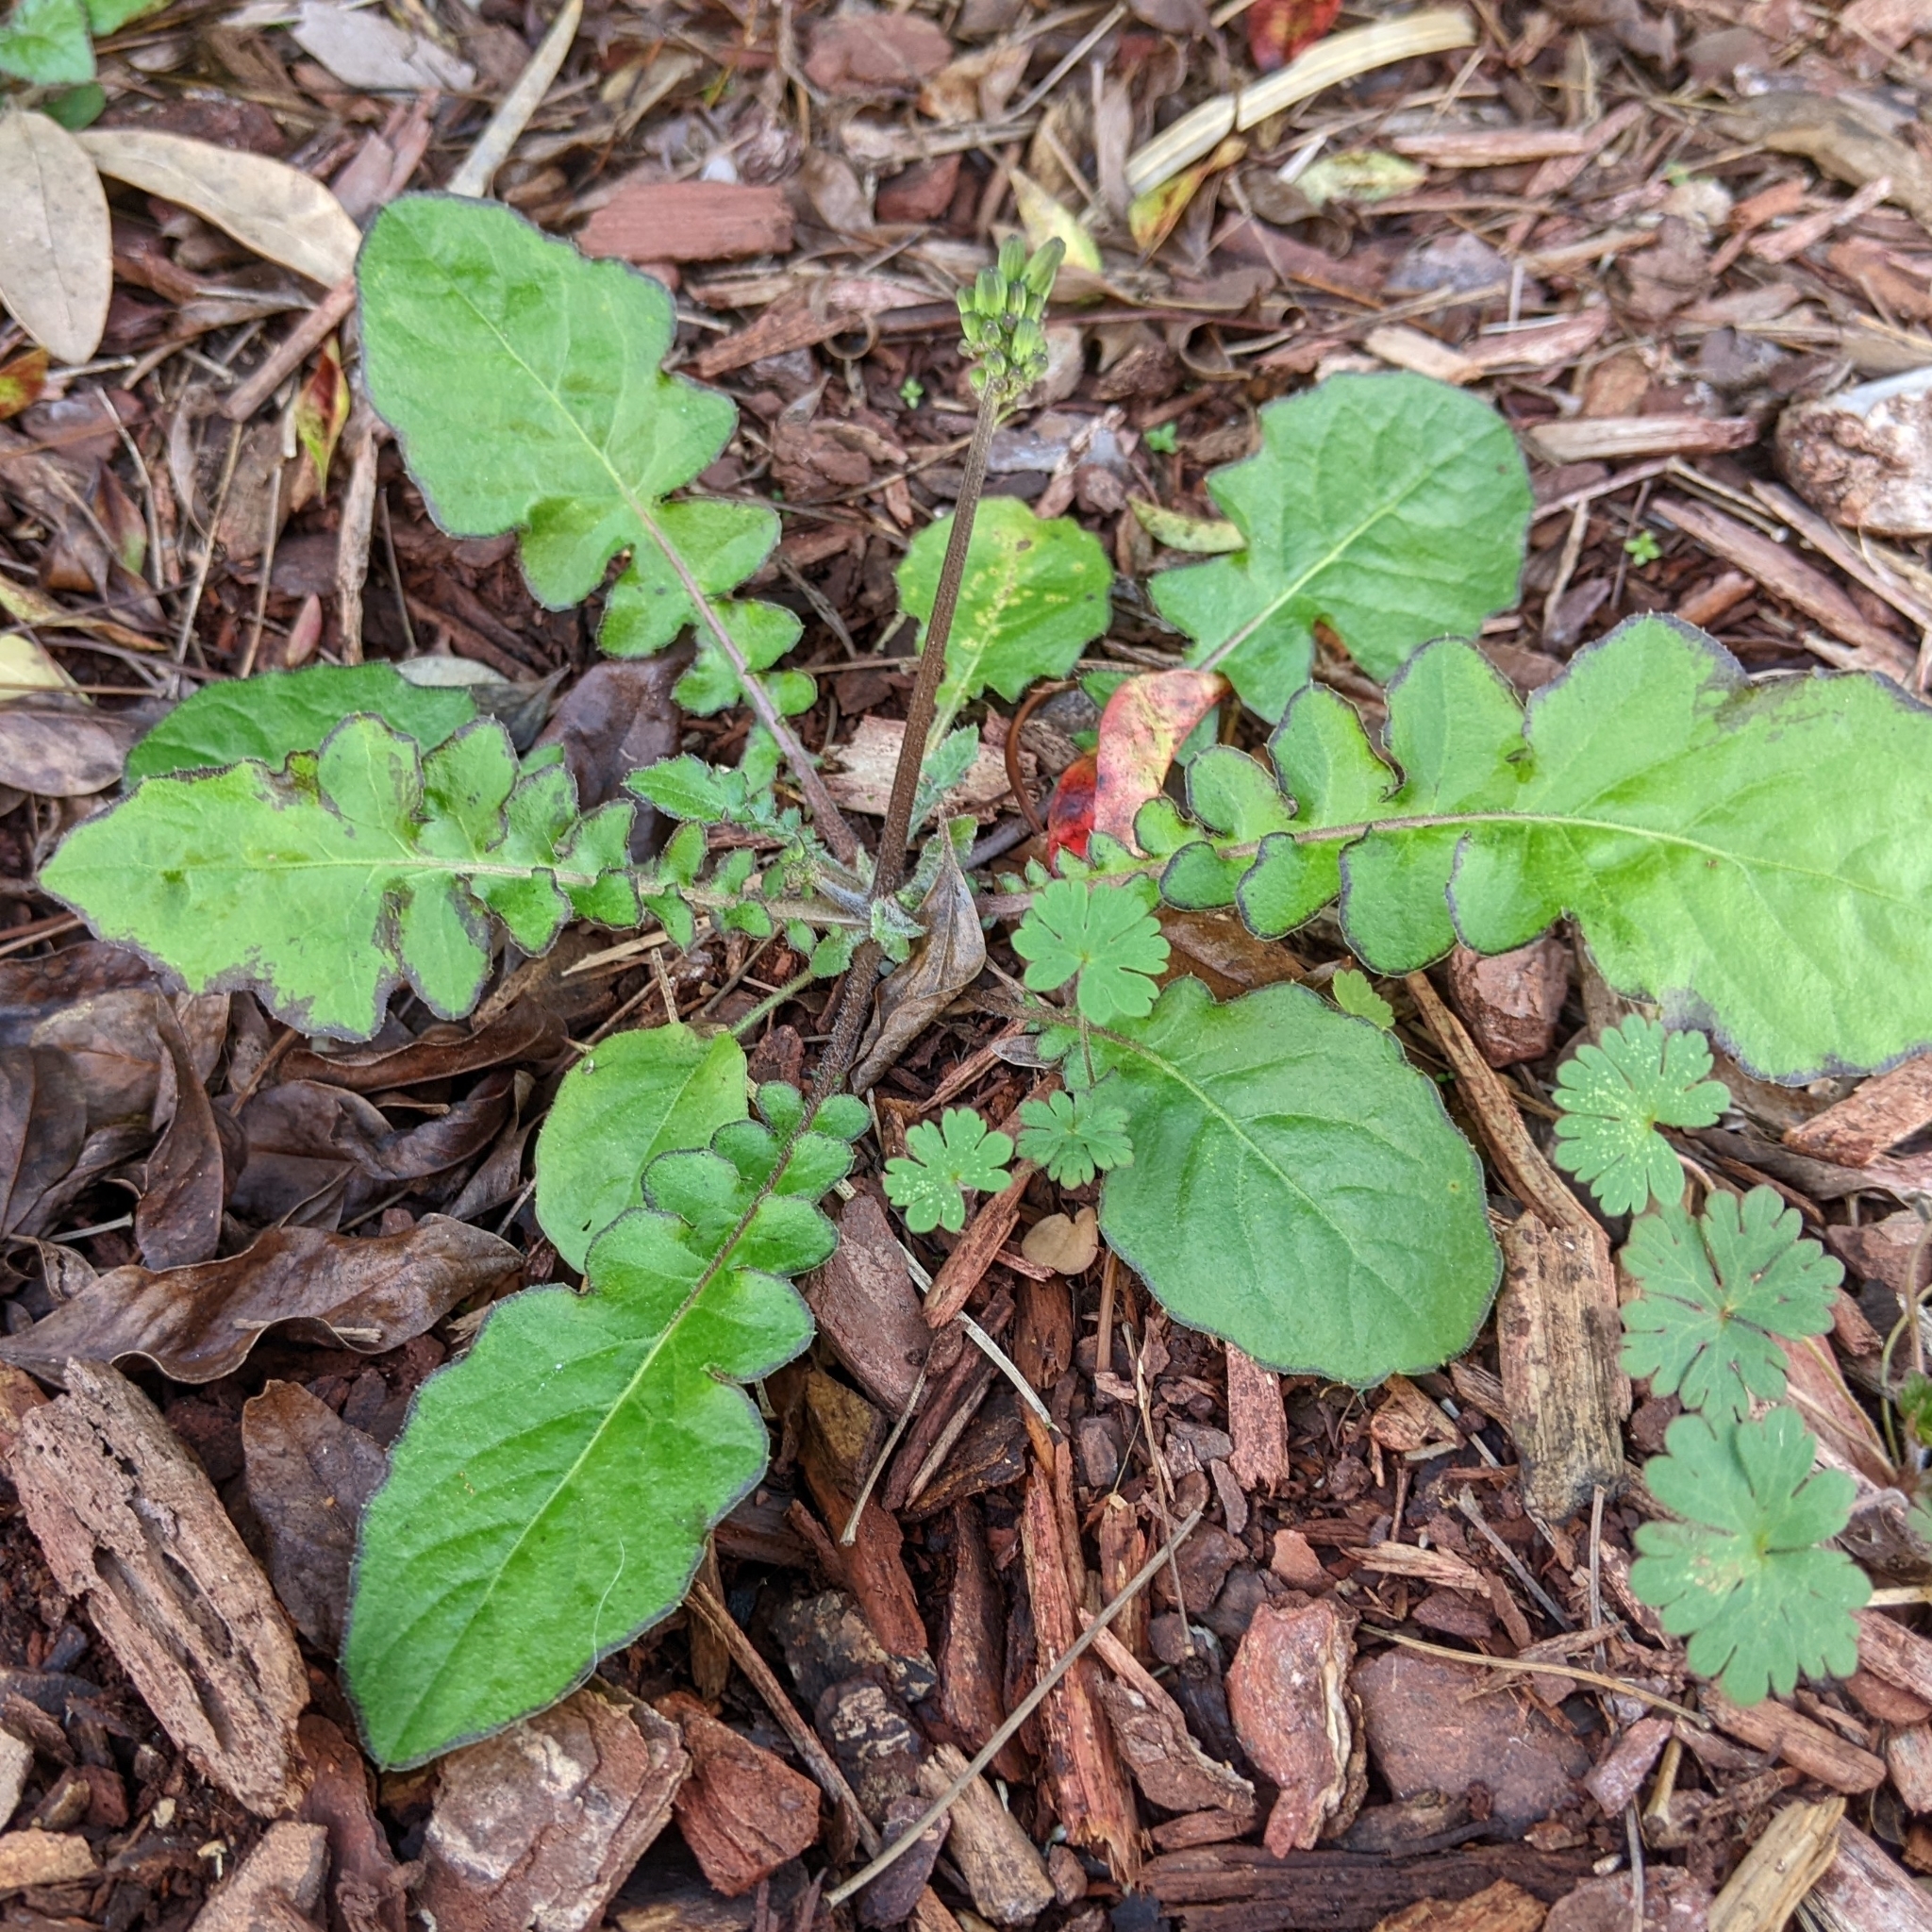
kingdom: Plantae
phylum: Tracheophyta
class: Magnoliopsida
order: Asterales
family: Asteraceae
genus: Youngia
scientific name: Youngia japonica
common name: Oriental false hawksbeard
